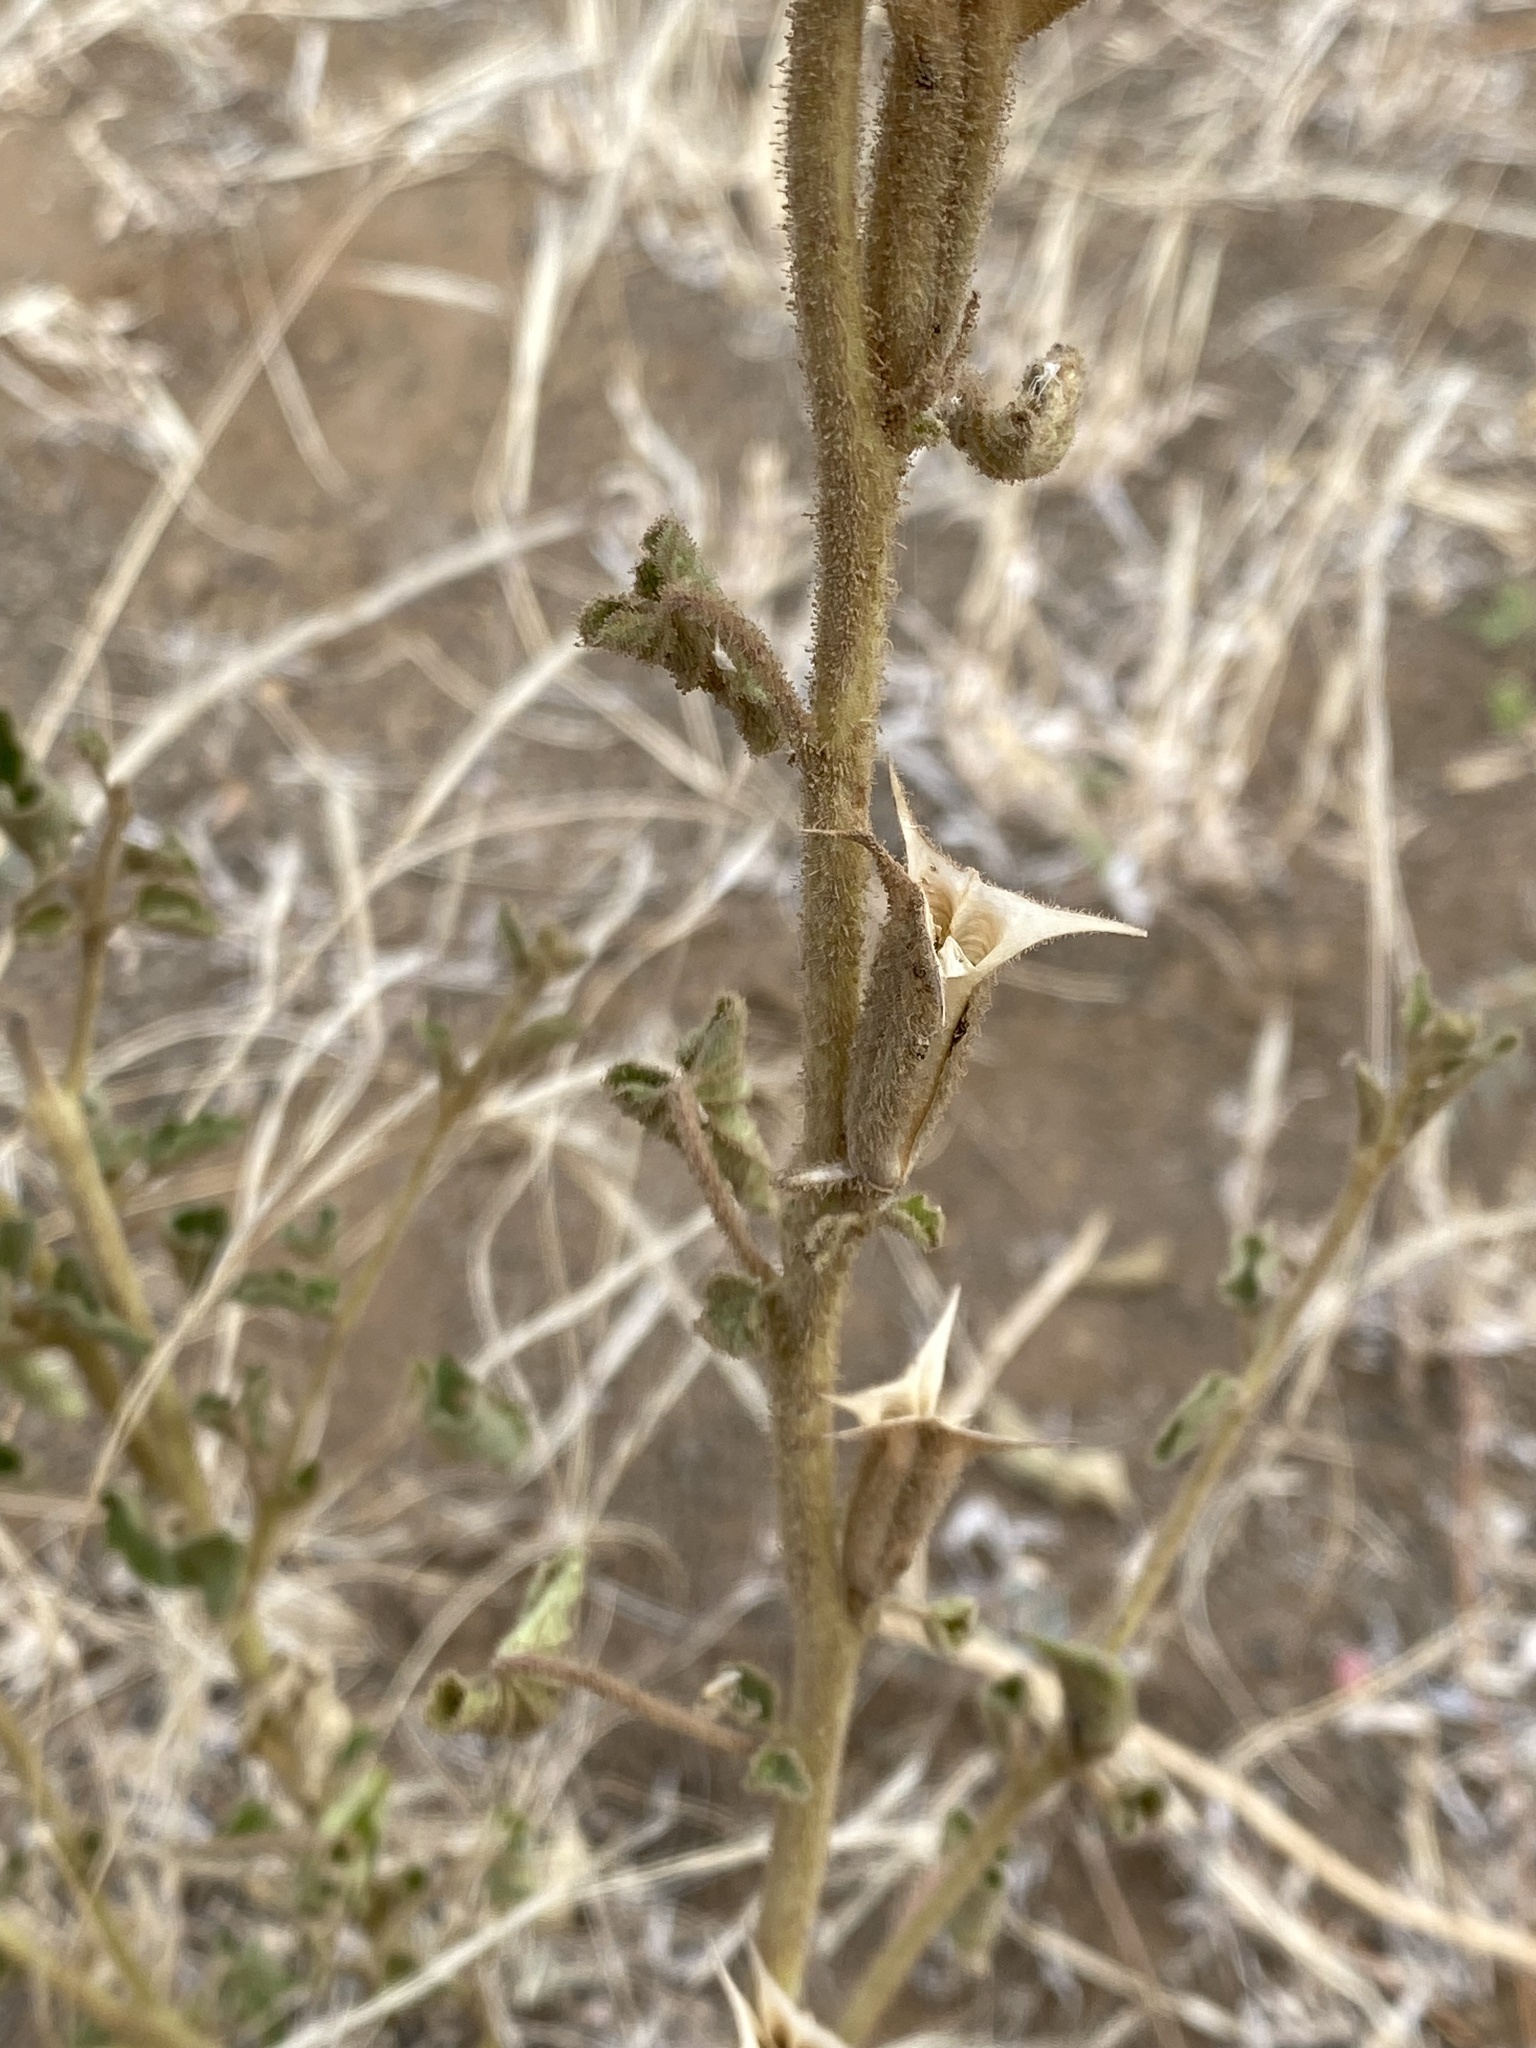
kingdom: Plantae
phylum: Tracheophyta
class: Magnoliopsida
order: Lamiales
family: Pedaliaceae
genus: Sesamum
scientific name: Sesamum trilobum
